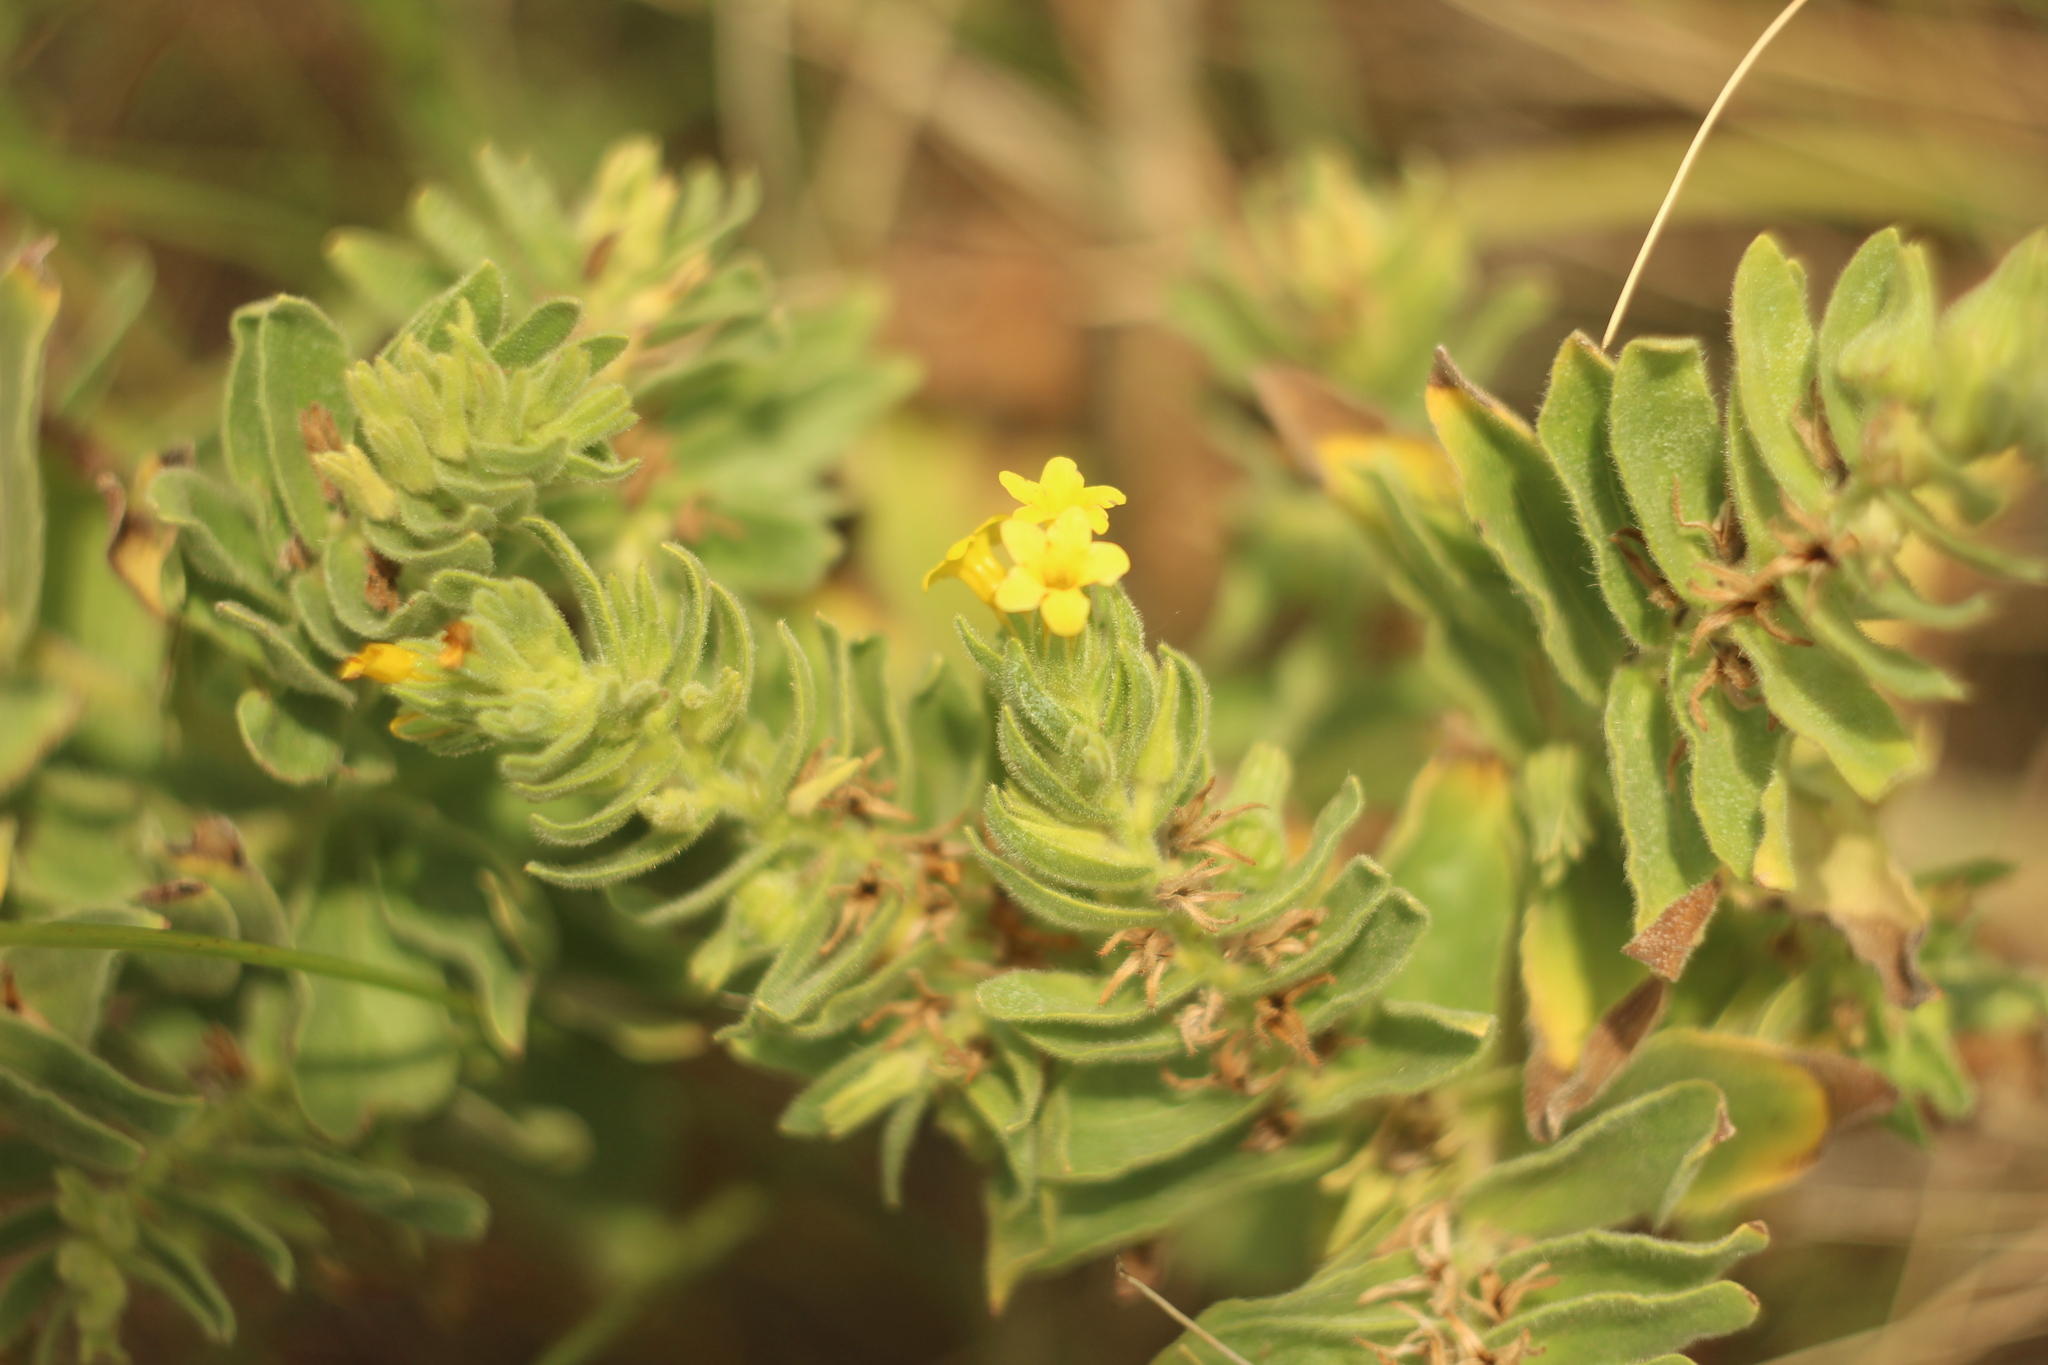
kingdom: Plantae
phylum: Tracheophyta
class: Magnoliopsida
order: Boraginales
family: Boraginaceae
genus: Alkanna
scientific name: Alkanna orientalis
